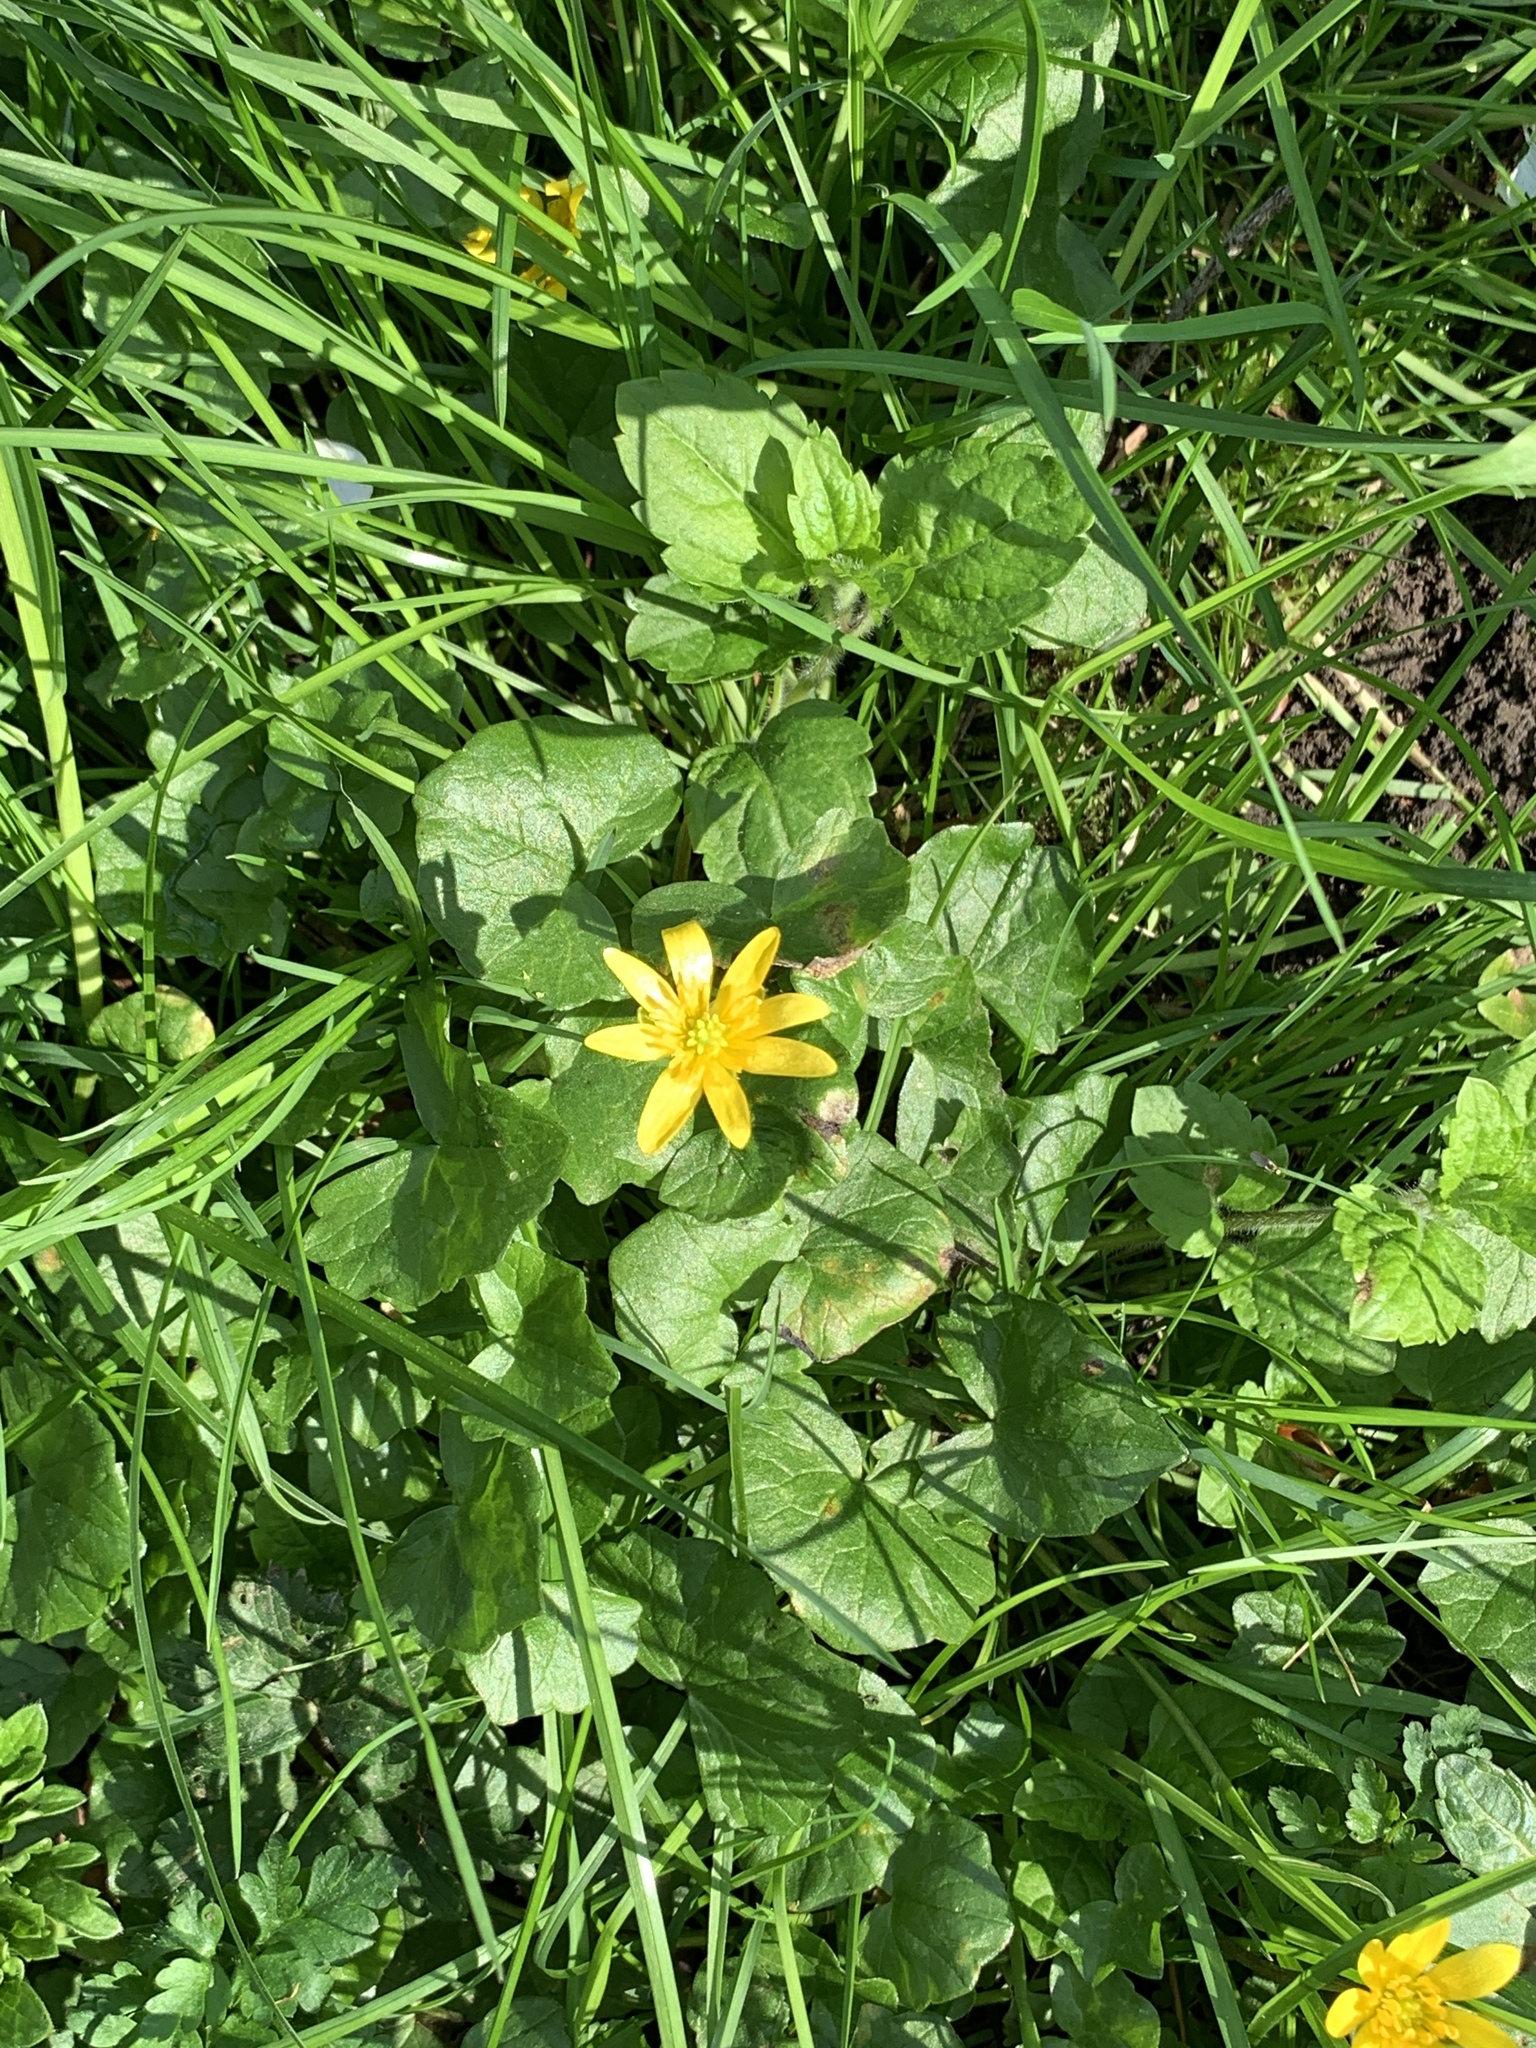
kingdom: Plantae
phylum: Tracheophyta
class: Magnoliopsida
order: Ranunculales
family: Ranunculaceae
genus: Ficaria
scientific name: Ficaria verna
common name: Lesser celandine
